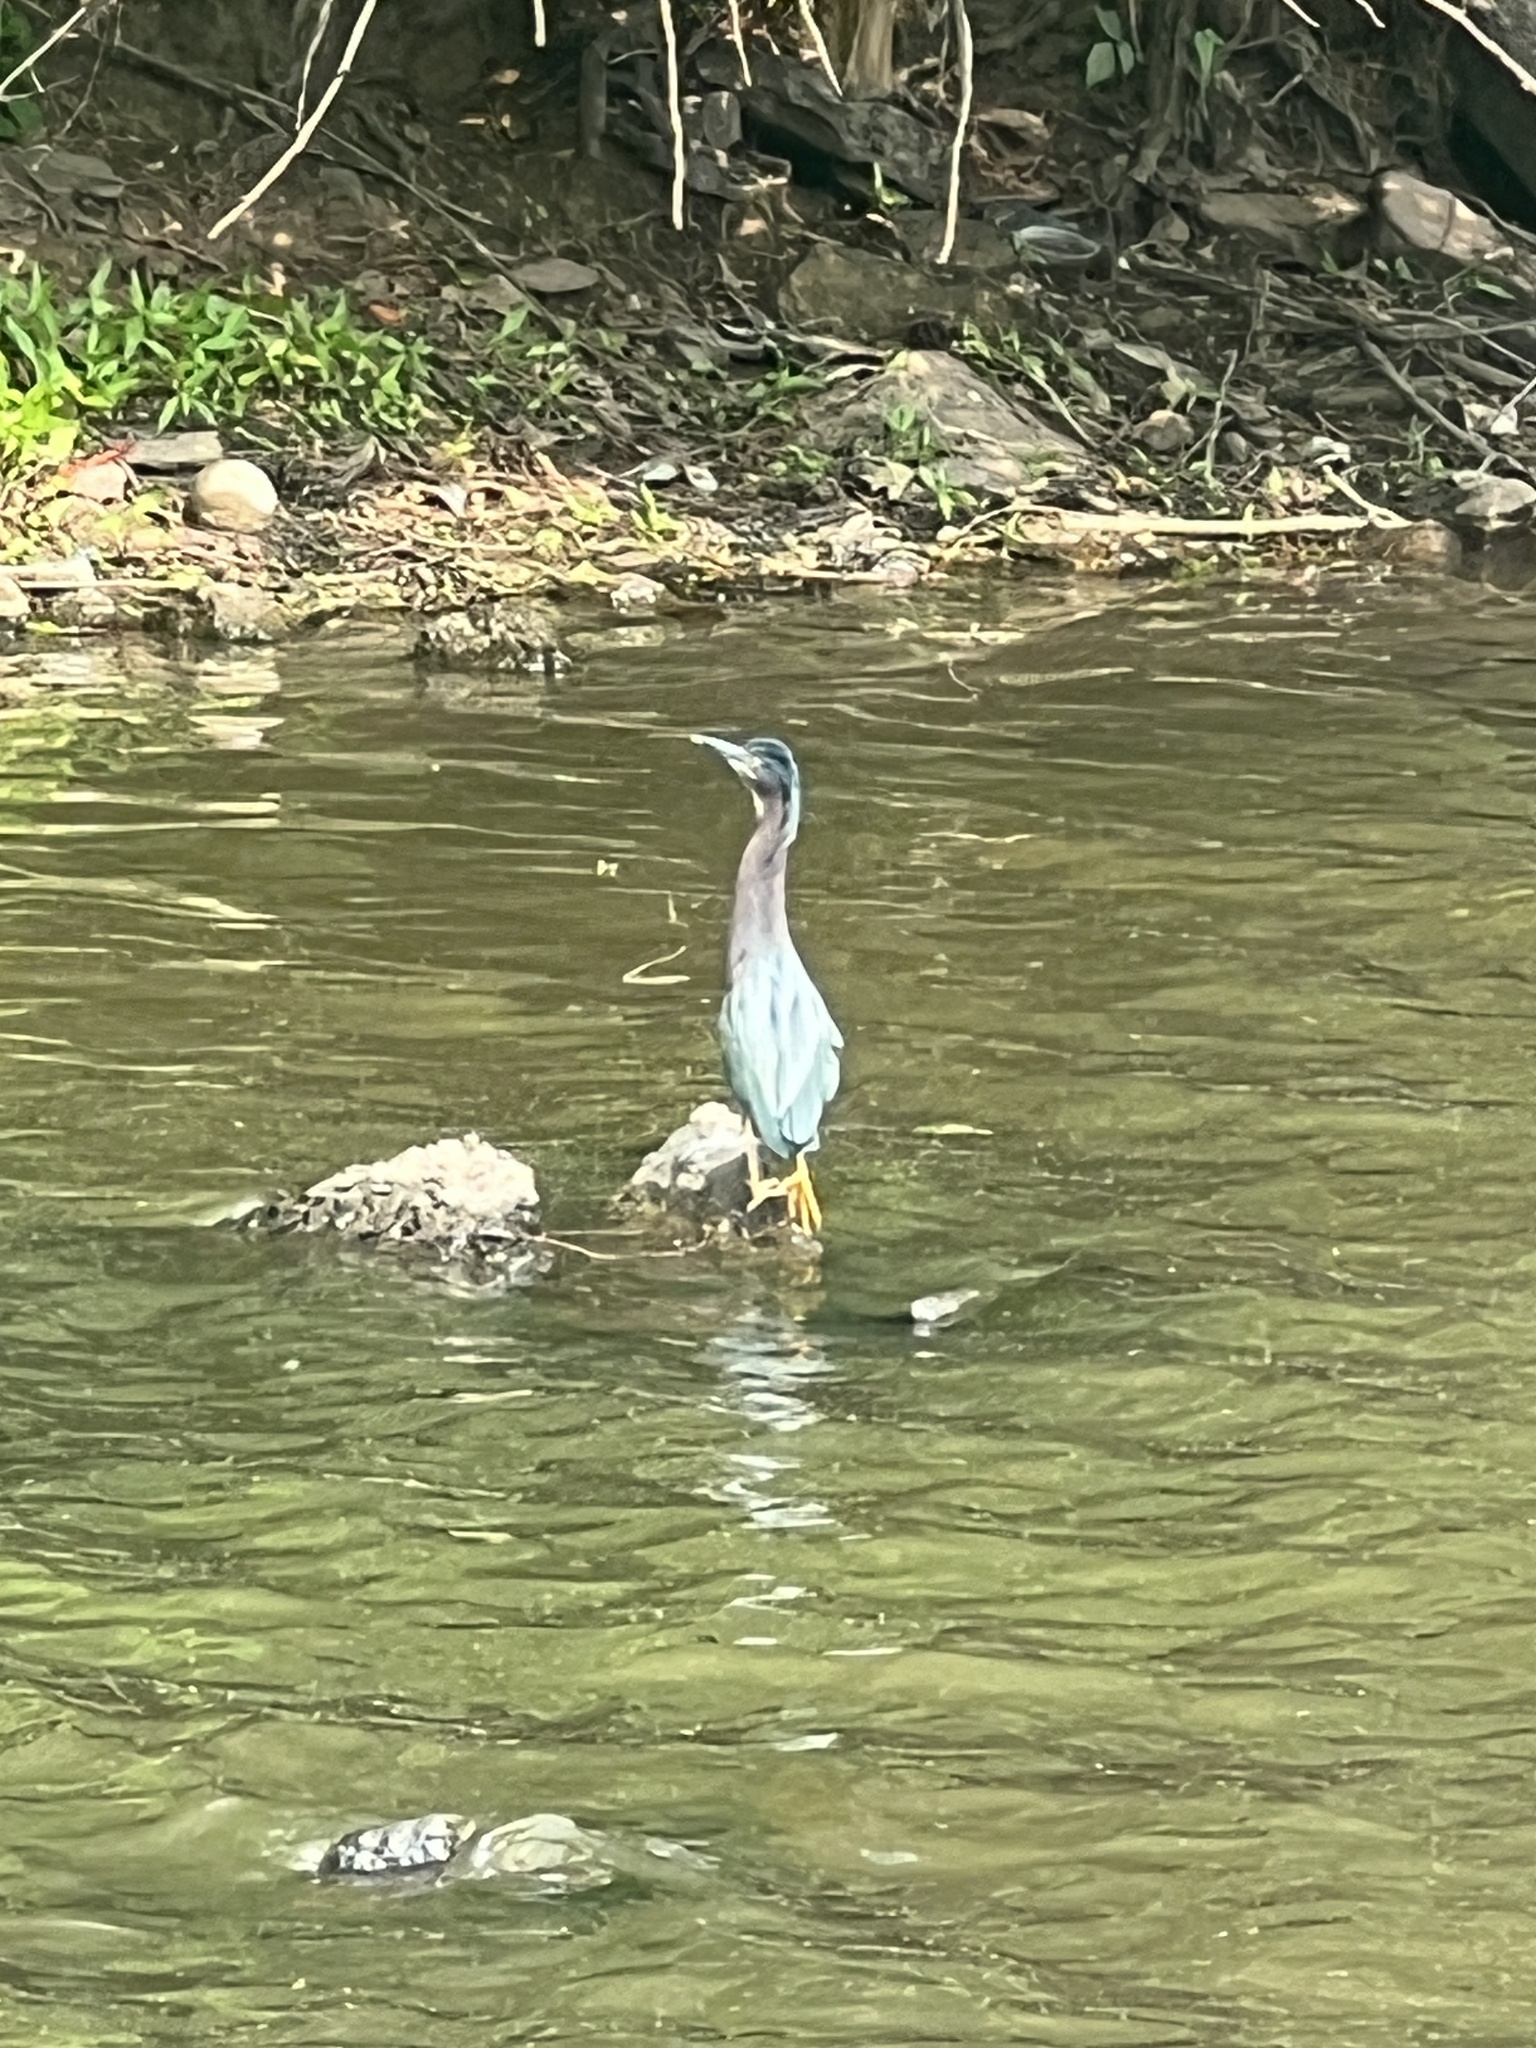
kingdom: Animalia
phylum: Chordata
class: Aves
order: Pelecaniformes
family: Ardeidae
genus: Butorides
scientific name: Butorides virescens
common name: Green heron
